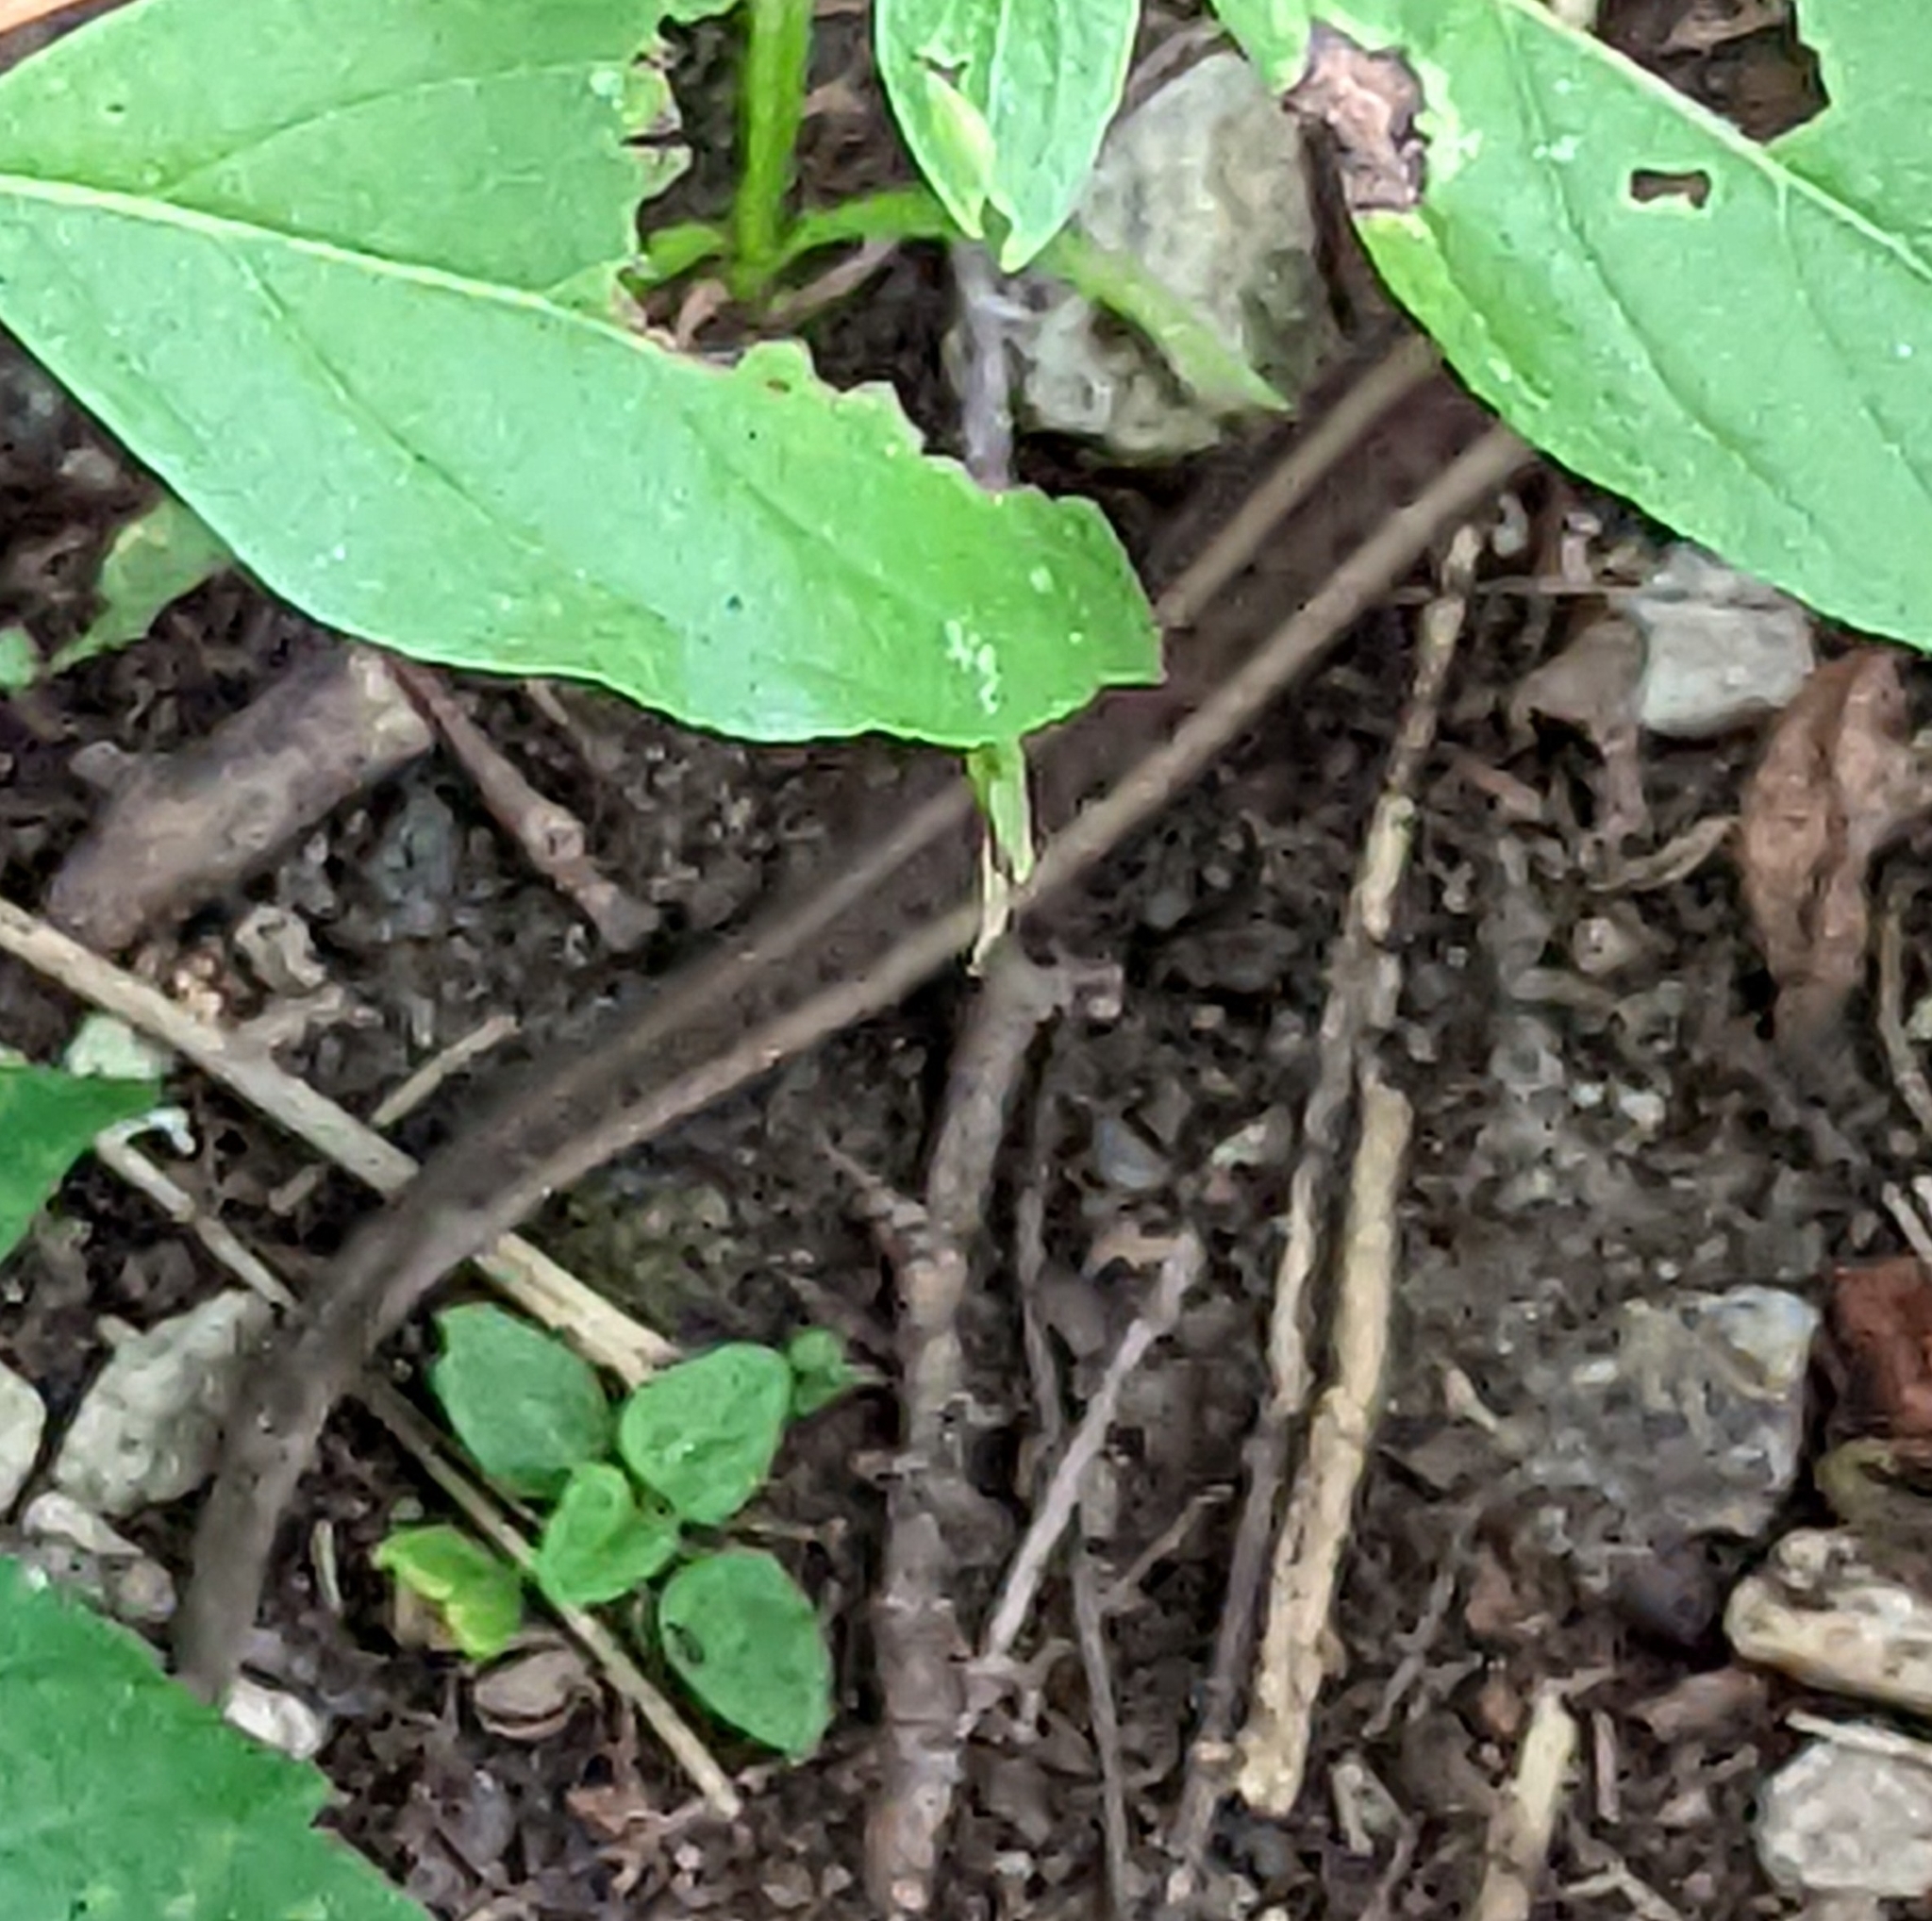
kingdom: Animalia
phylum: Chordata
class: Squamata
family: Colubridae
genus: Thamnophis
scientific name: Thamnophis sirtalis
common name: Common garter snake
